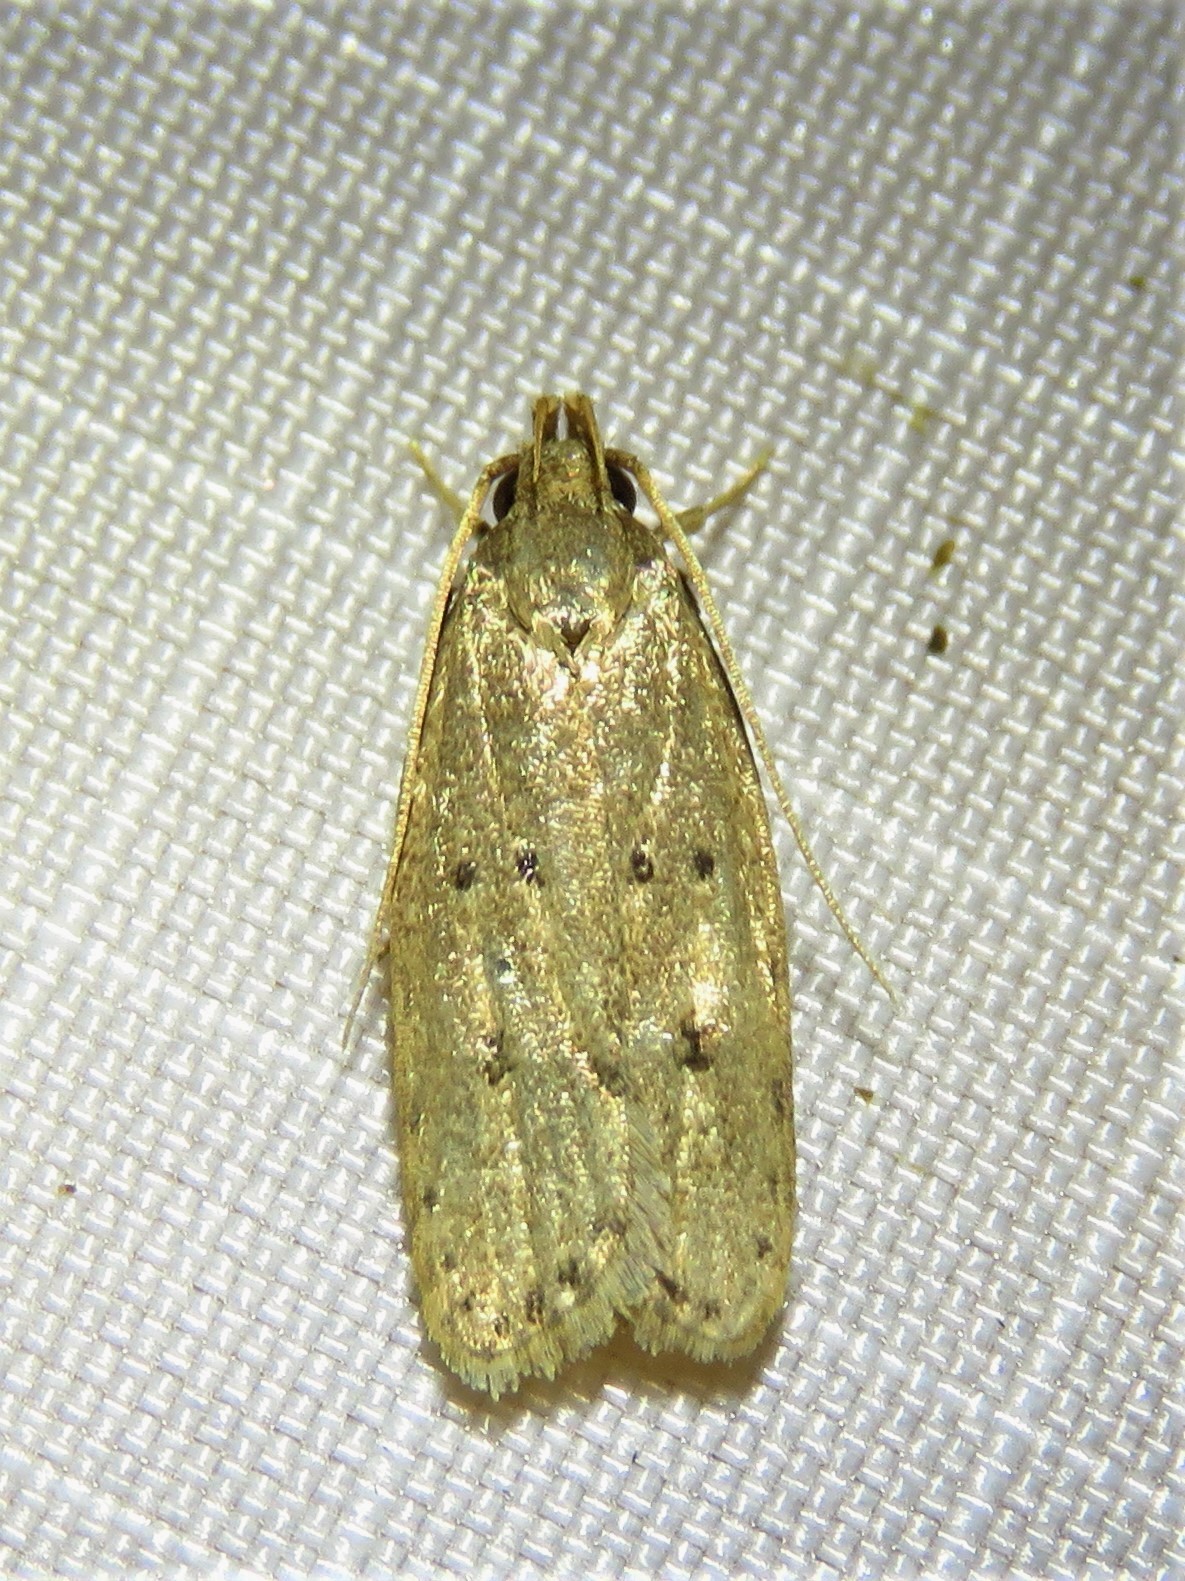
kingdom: Animalia
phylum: Arthropoda
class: Insecta
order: Lepidoptera
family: Autostichidae
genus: Autosticha
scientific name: Autosticha kyotensis
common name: Kyoto moth
